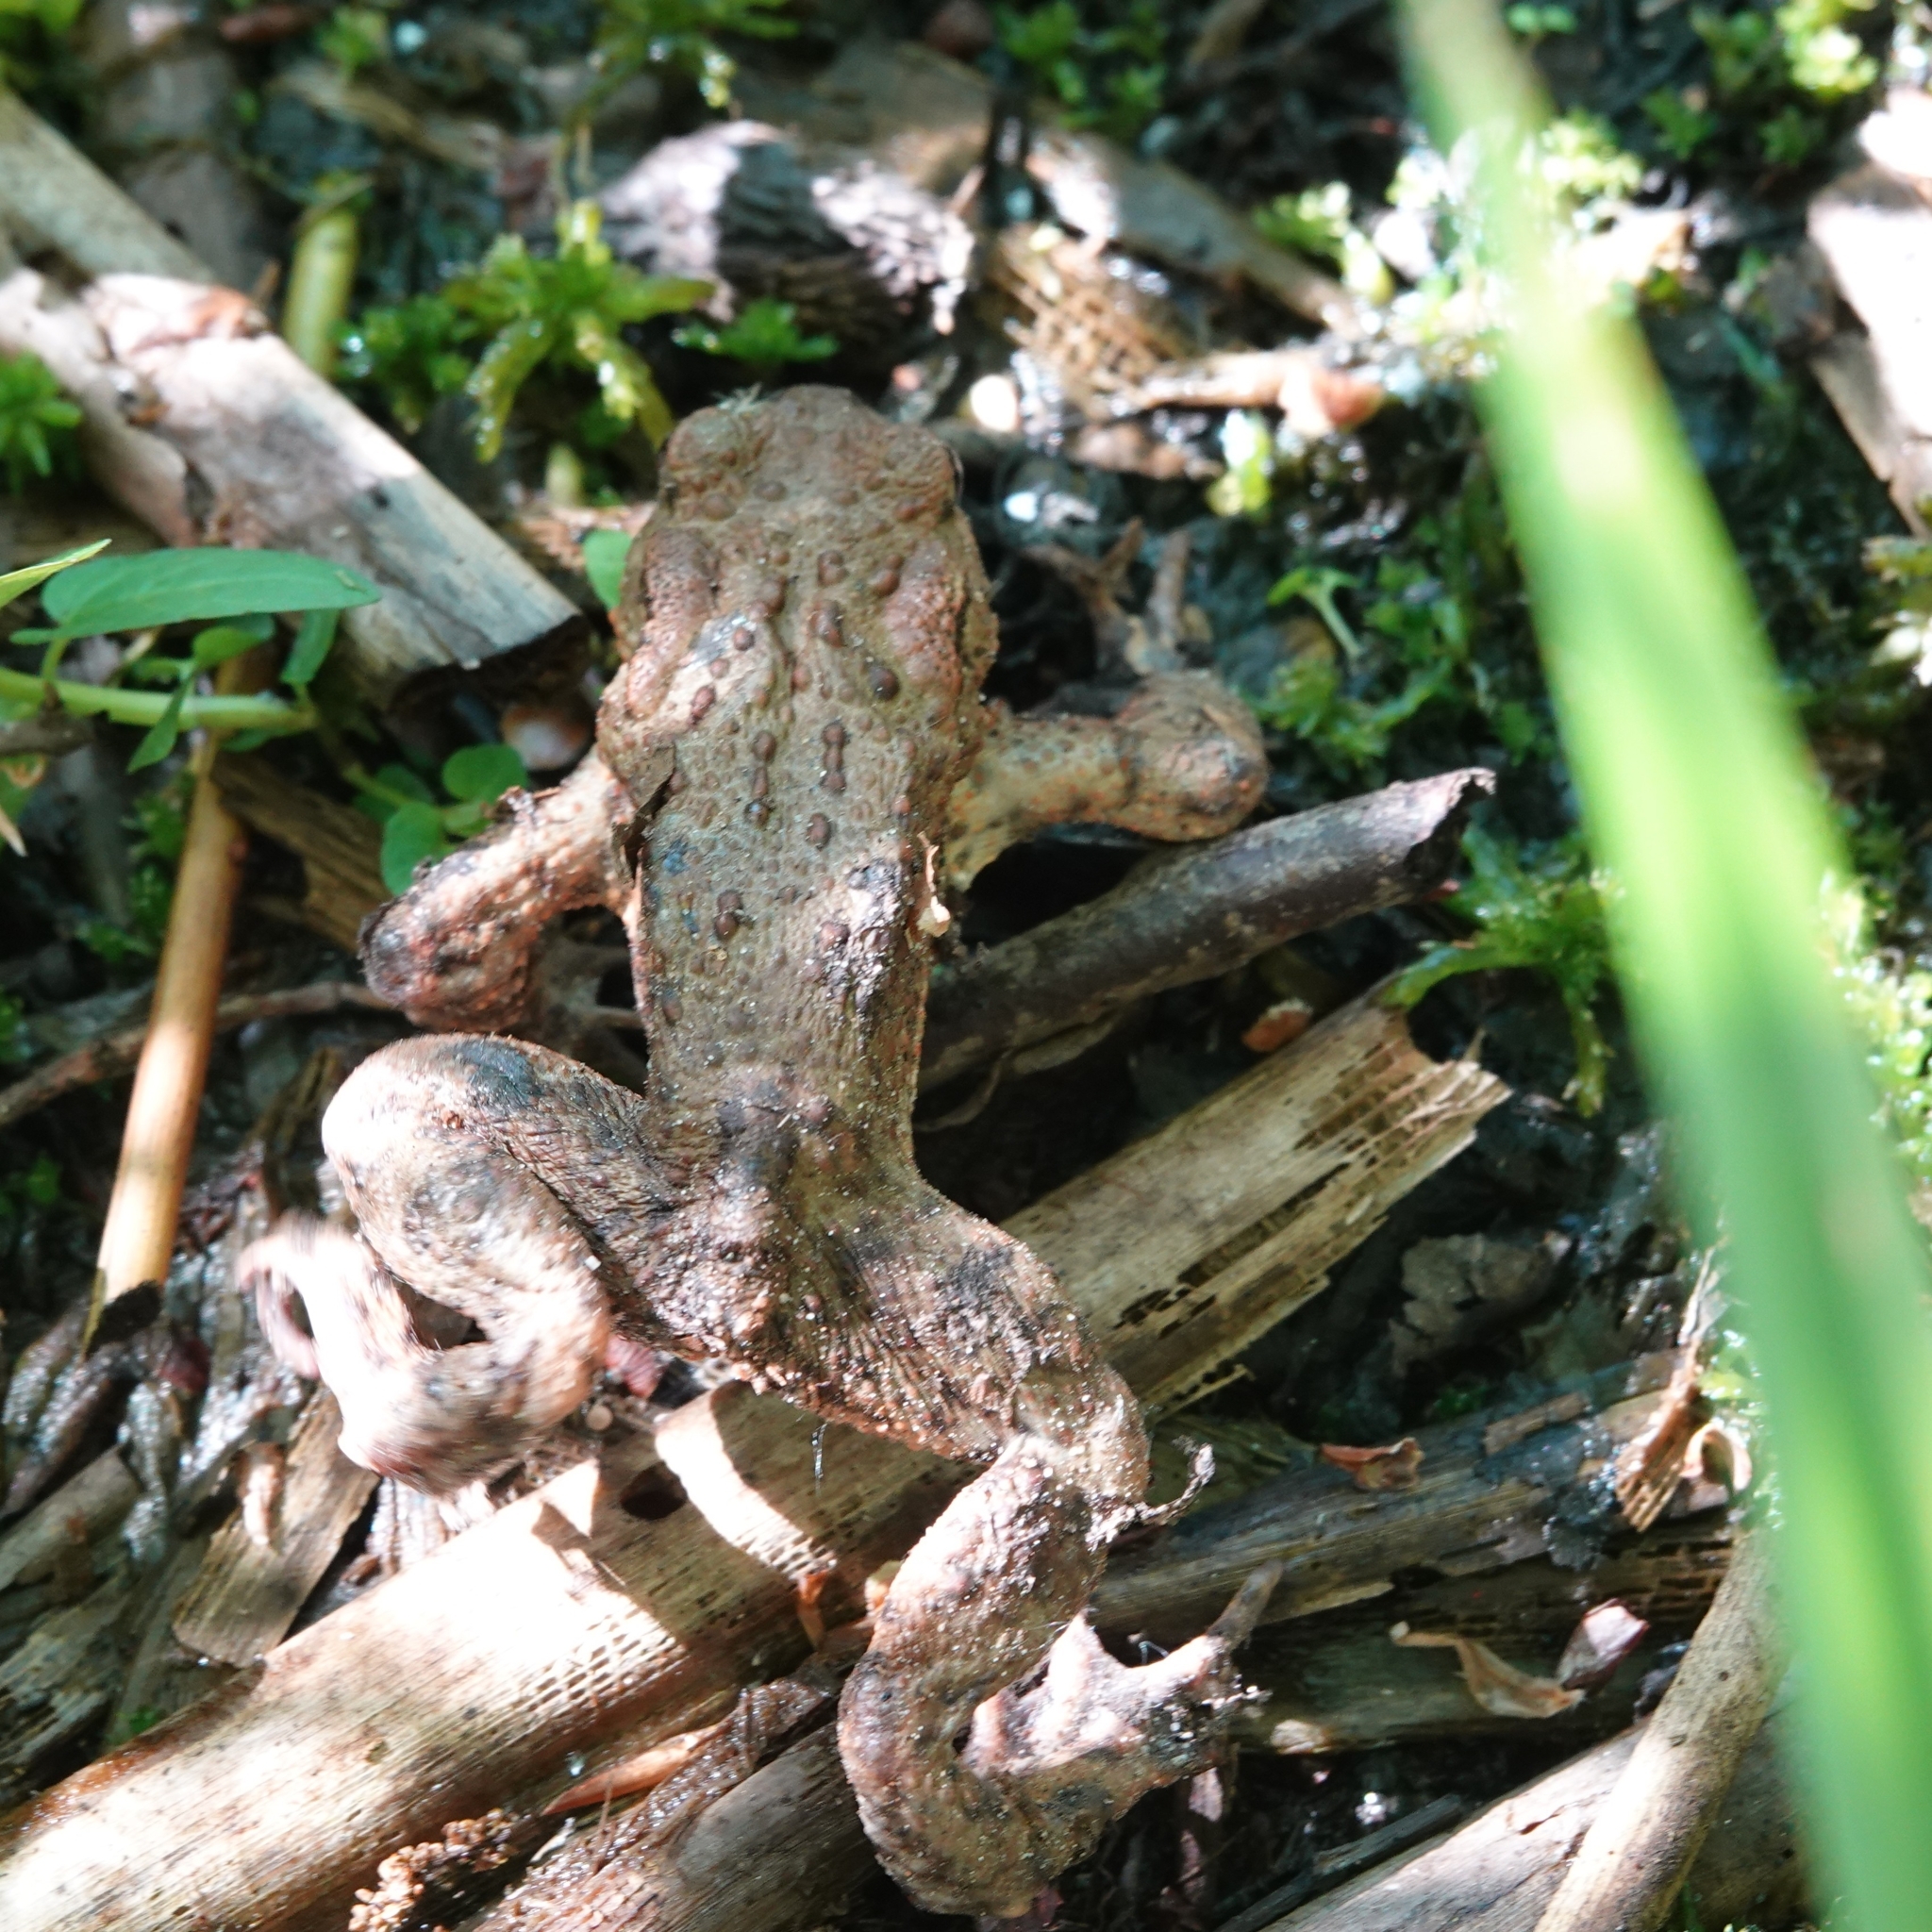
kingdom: Animalia
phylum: Chordata
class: Amphibia
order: Anura
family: Bufonidae
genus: Bufo
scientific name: Bufo bufo
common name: Common toad
